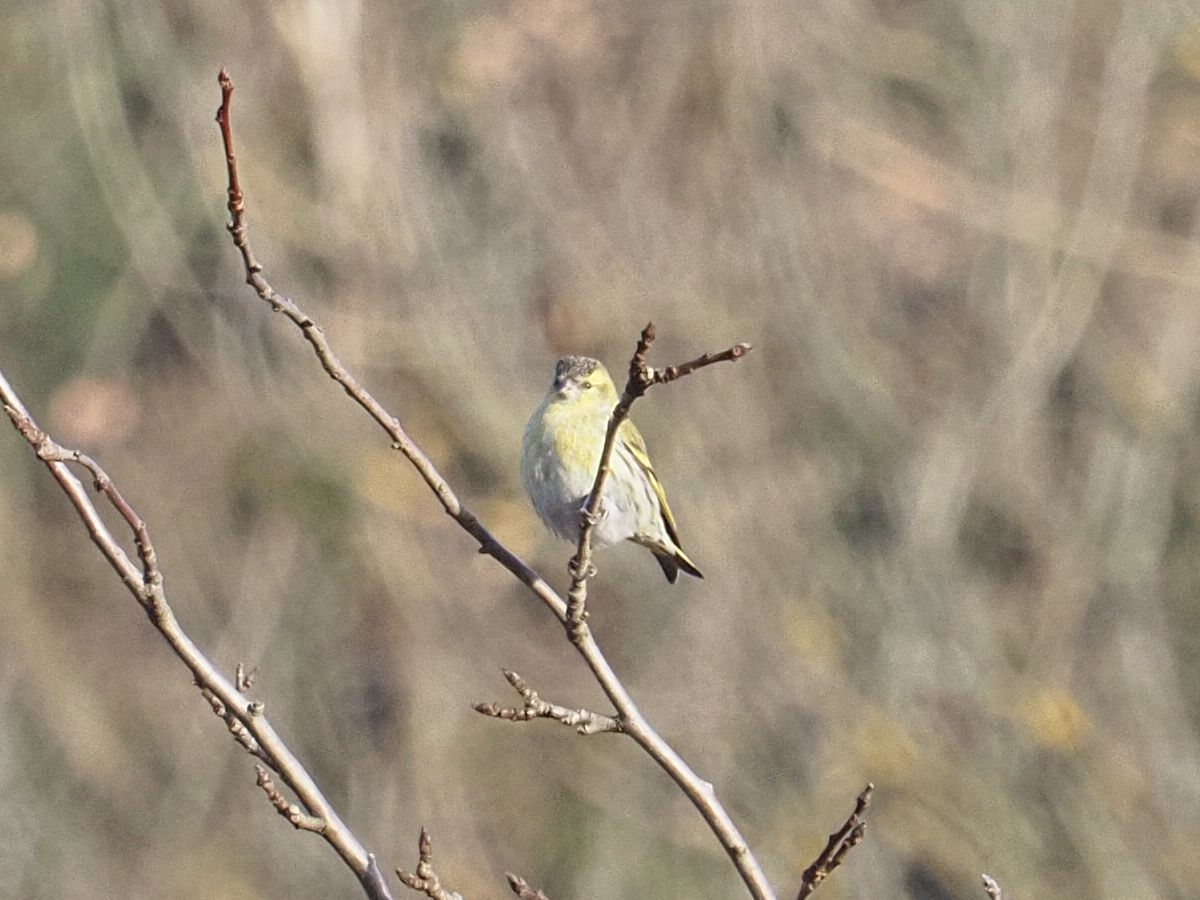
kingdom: Animalia
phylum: Chordata
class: Aves
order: Passeriformes
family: Fringillidae
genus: Spinus
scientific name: Spinus spinus
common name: Eurasian siskin
